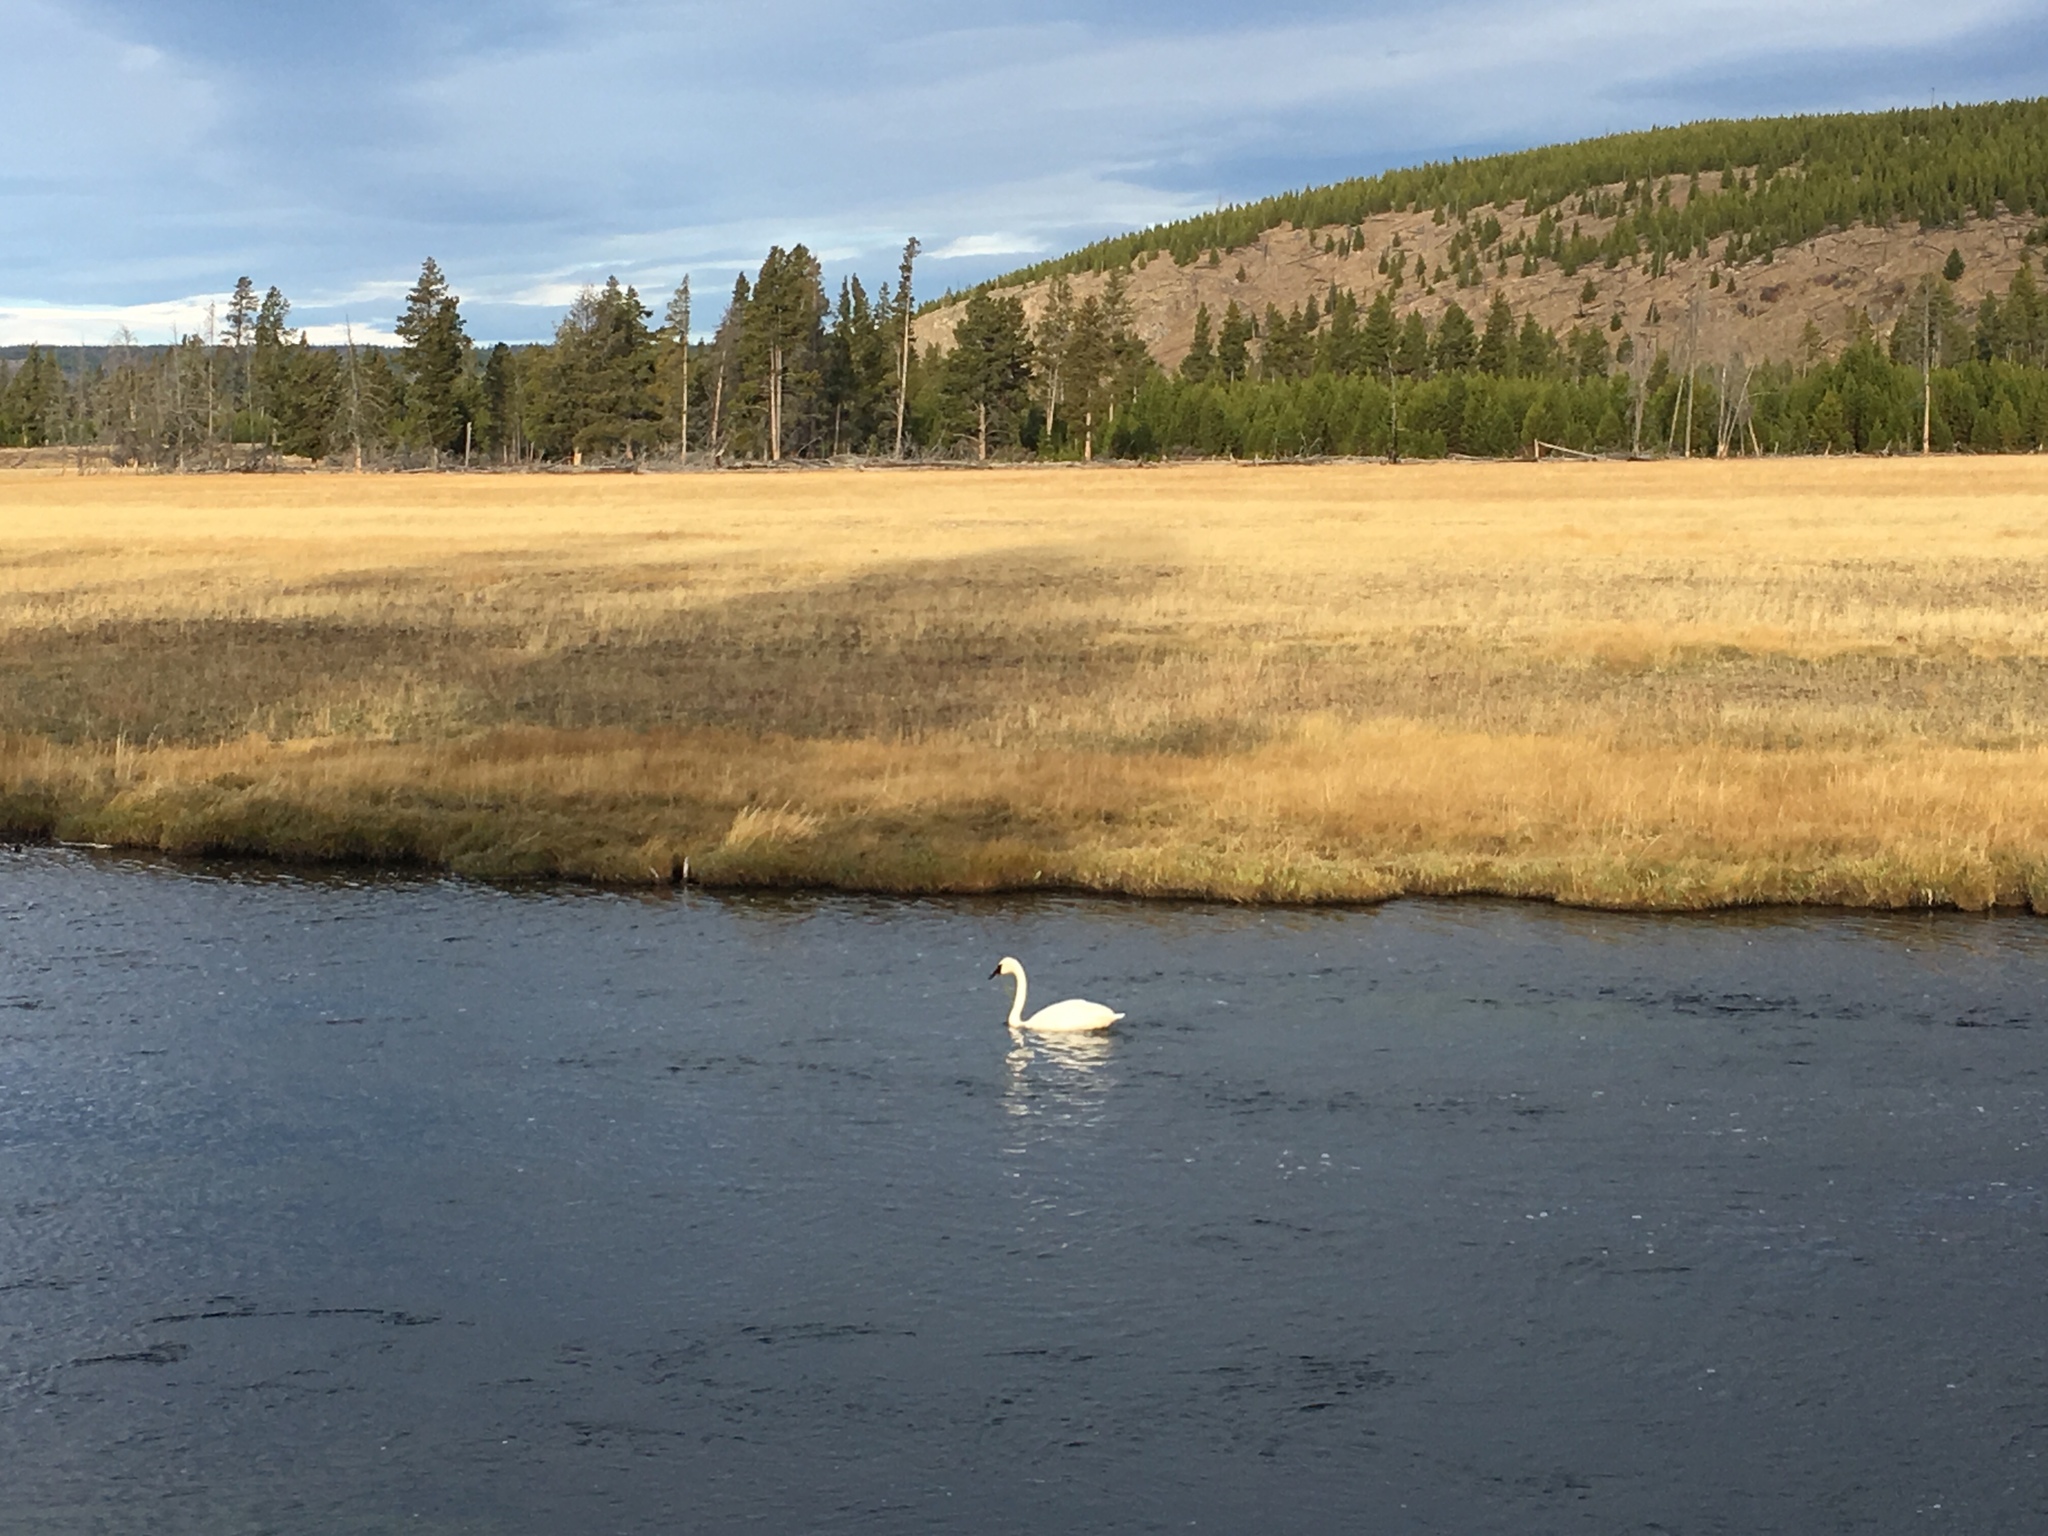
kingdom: Animalia
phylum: Chordata
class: Aves
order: Anseriformes
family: Anatidae
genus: Cygnus
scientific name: Cygnus buccinator
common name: Trumpeter swan
